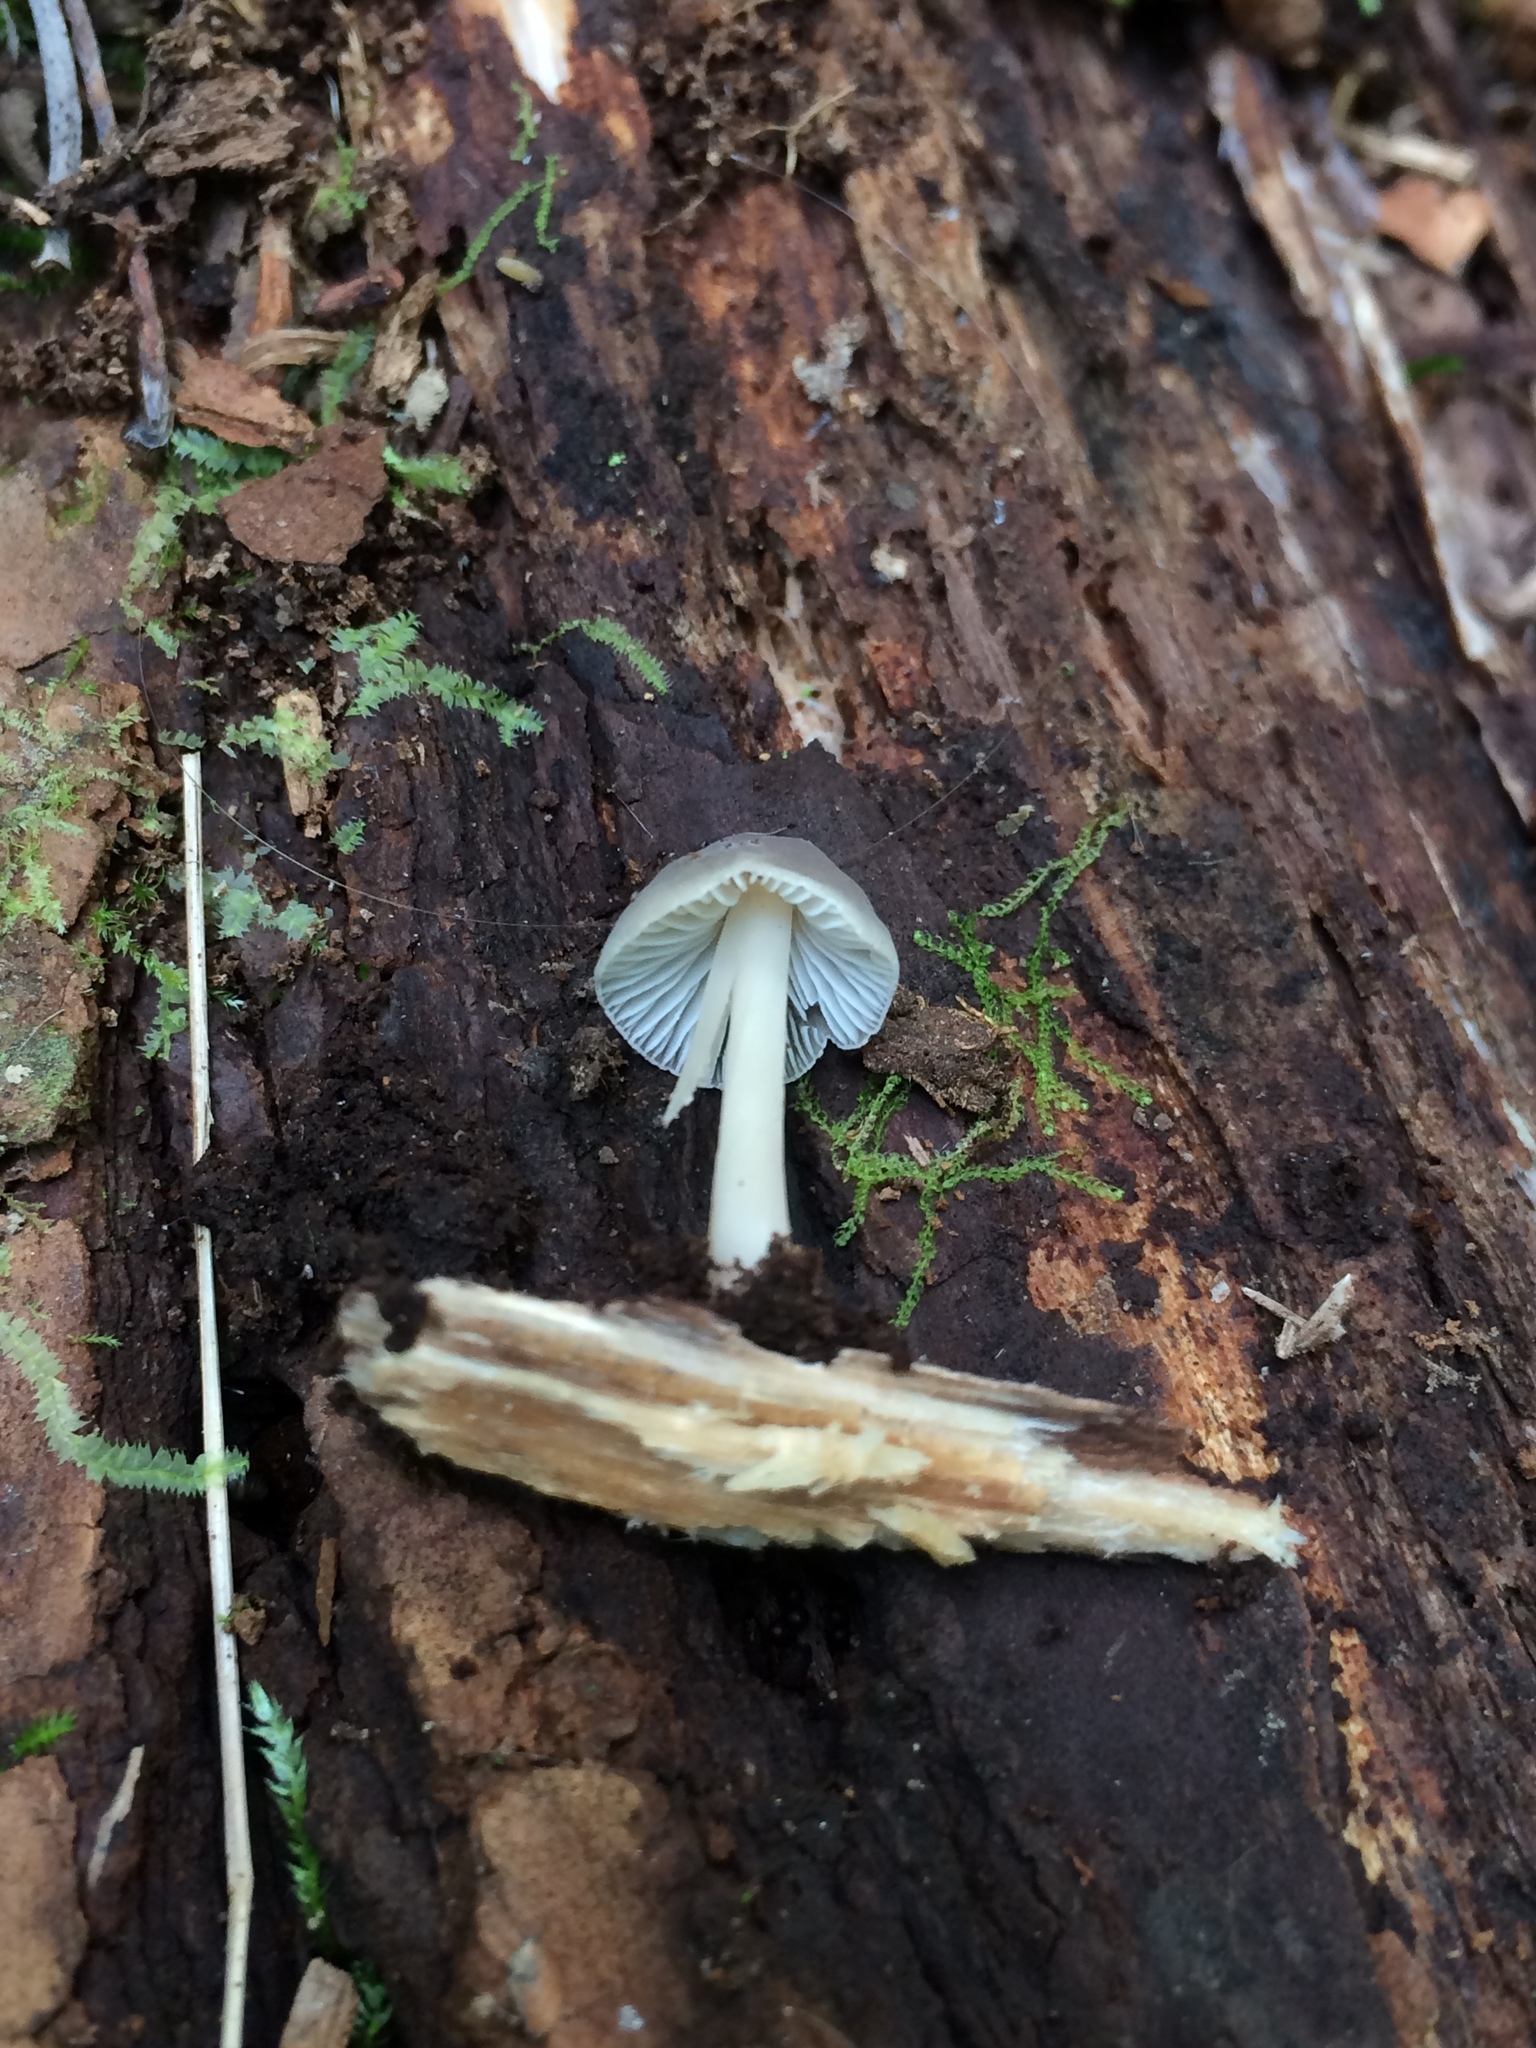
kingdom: Fungi
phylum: Basidiomycota
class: Agaricomycetes
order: Agaricales
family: Mycenaceae
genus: Mycena
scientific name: Mycena galericulata
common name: Bonnet mycena
